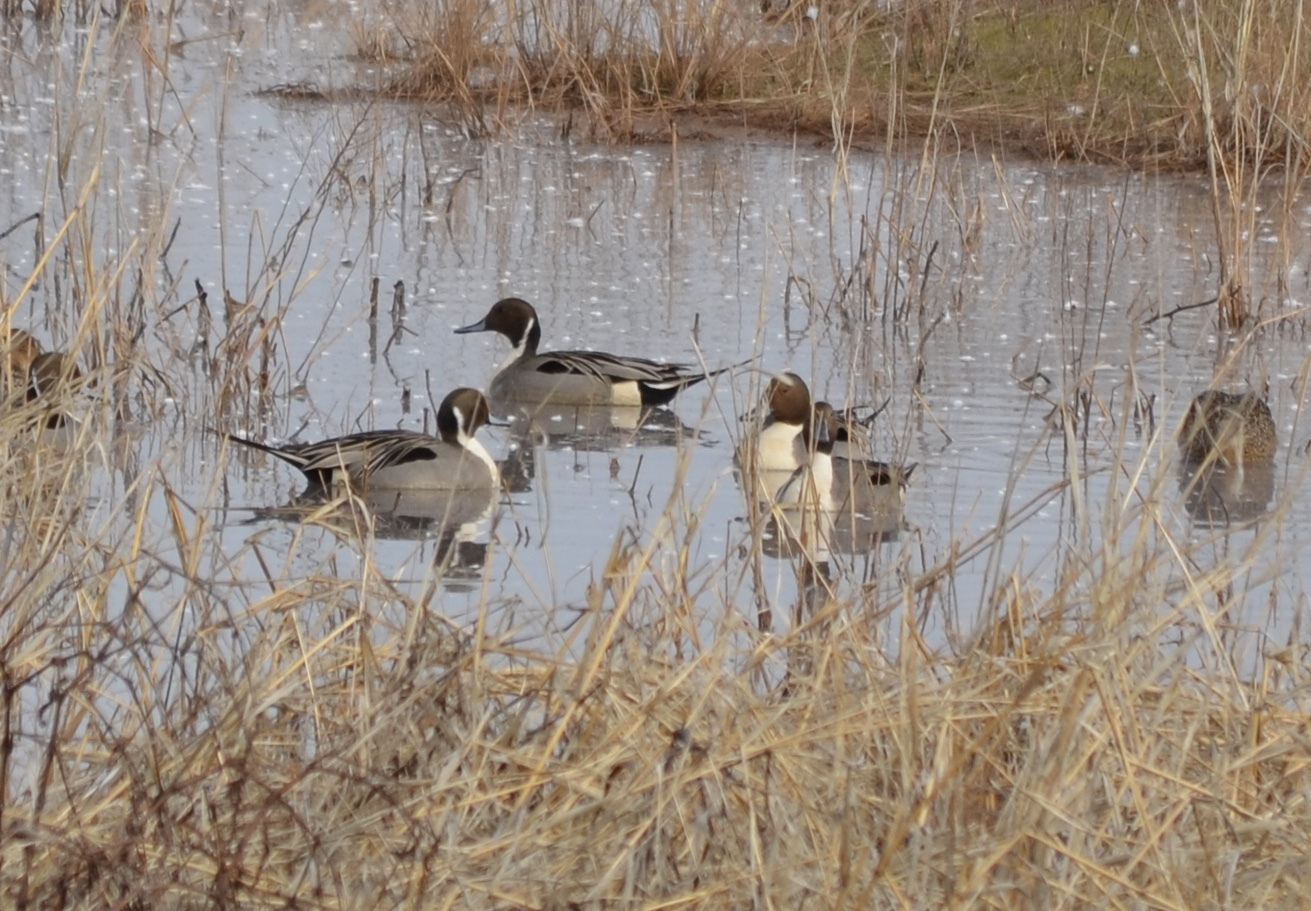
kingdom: Animalia
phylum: Chordata
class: Aves
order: Anseriformes
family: Anatidae
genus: Anas
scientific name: Anas acuta
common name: Northern pintail
